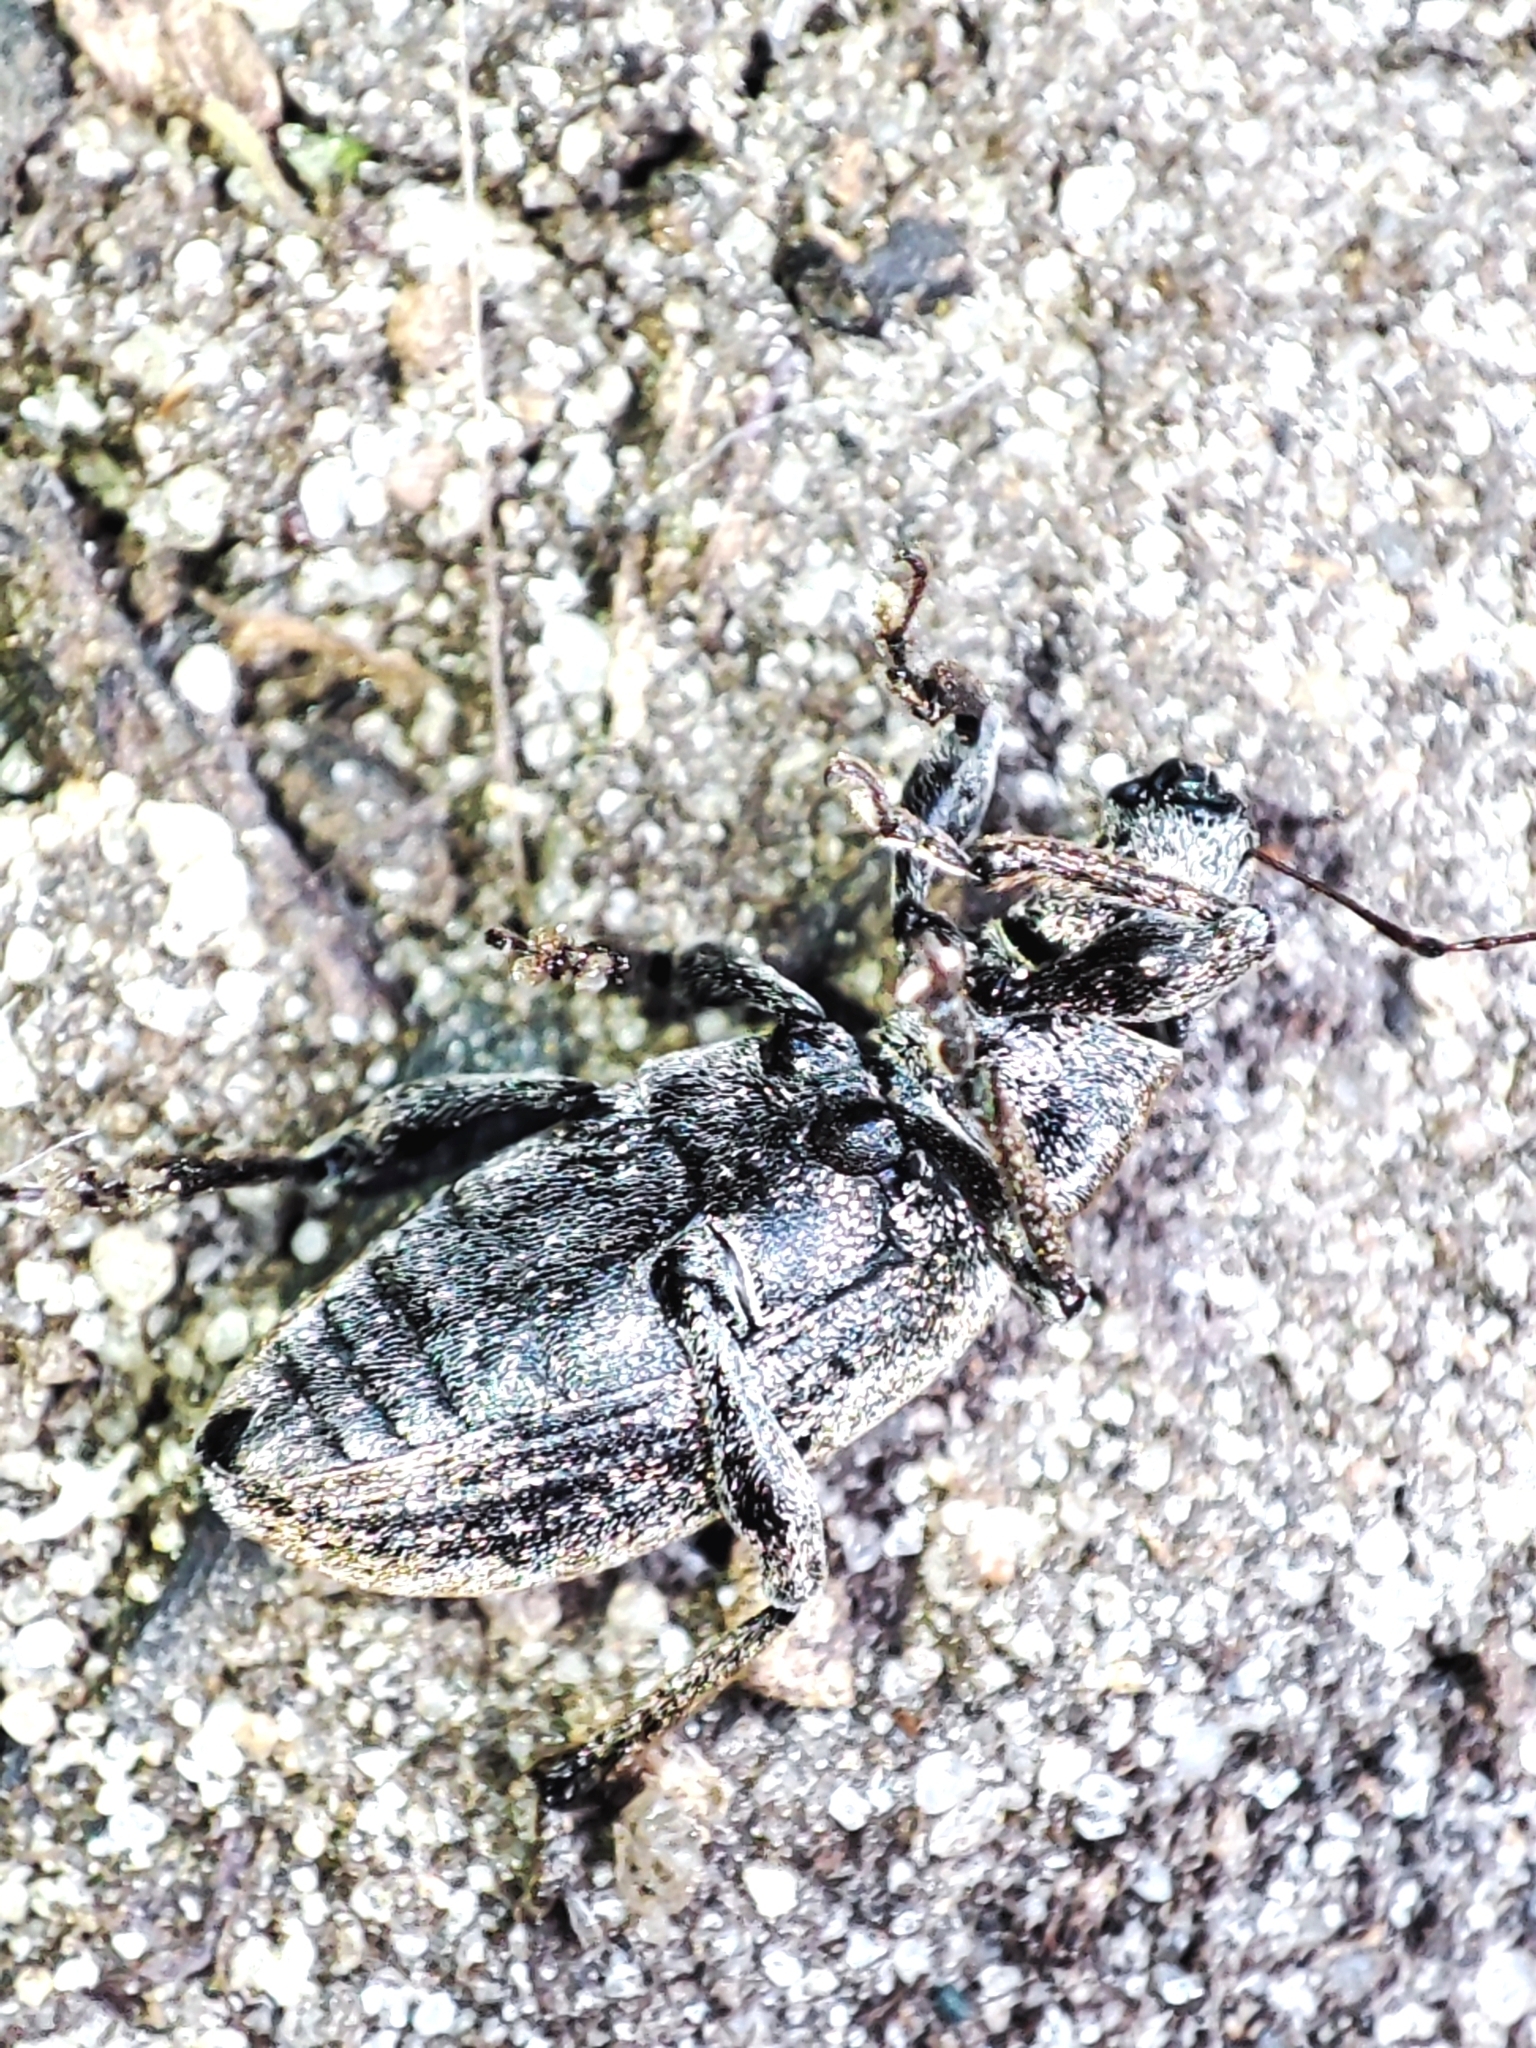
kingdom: Animalia
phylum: Arthropoda
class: Insecta
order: Coleoptera
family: Curculionidae
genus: Brachyderes
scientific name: Brachyderes incanus
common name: Weevil
